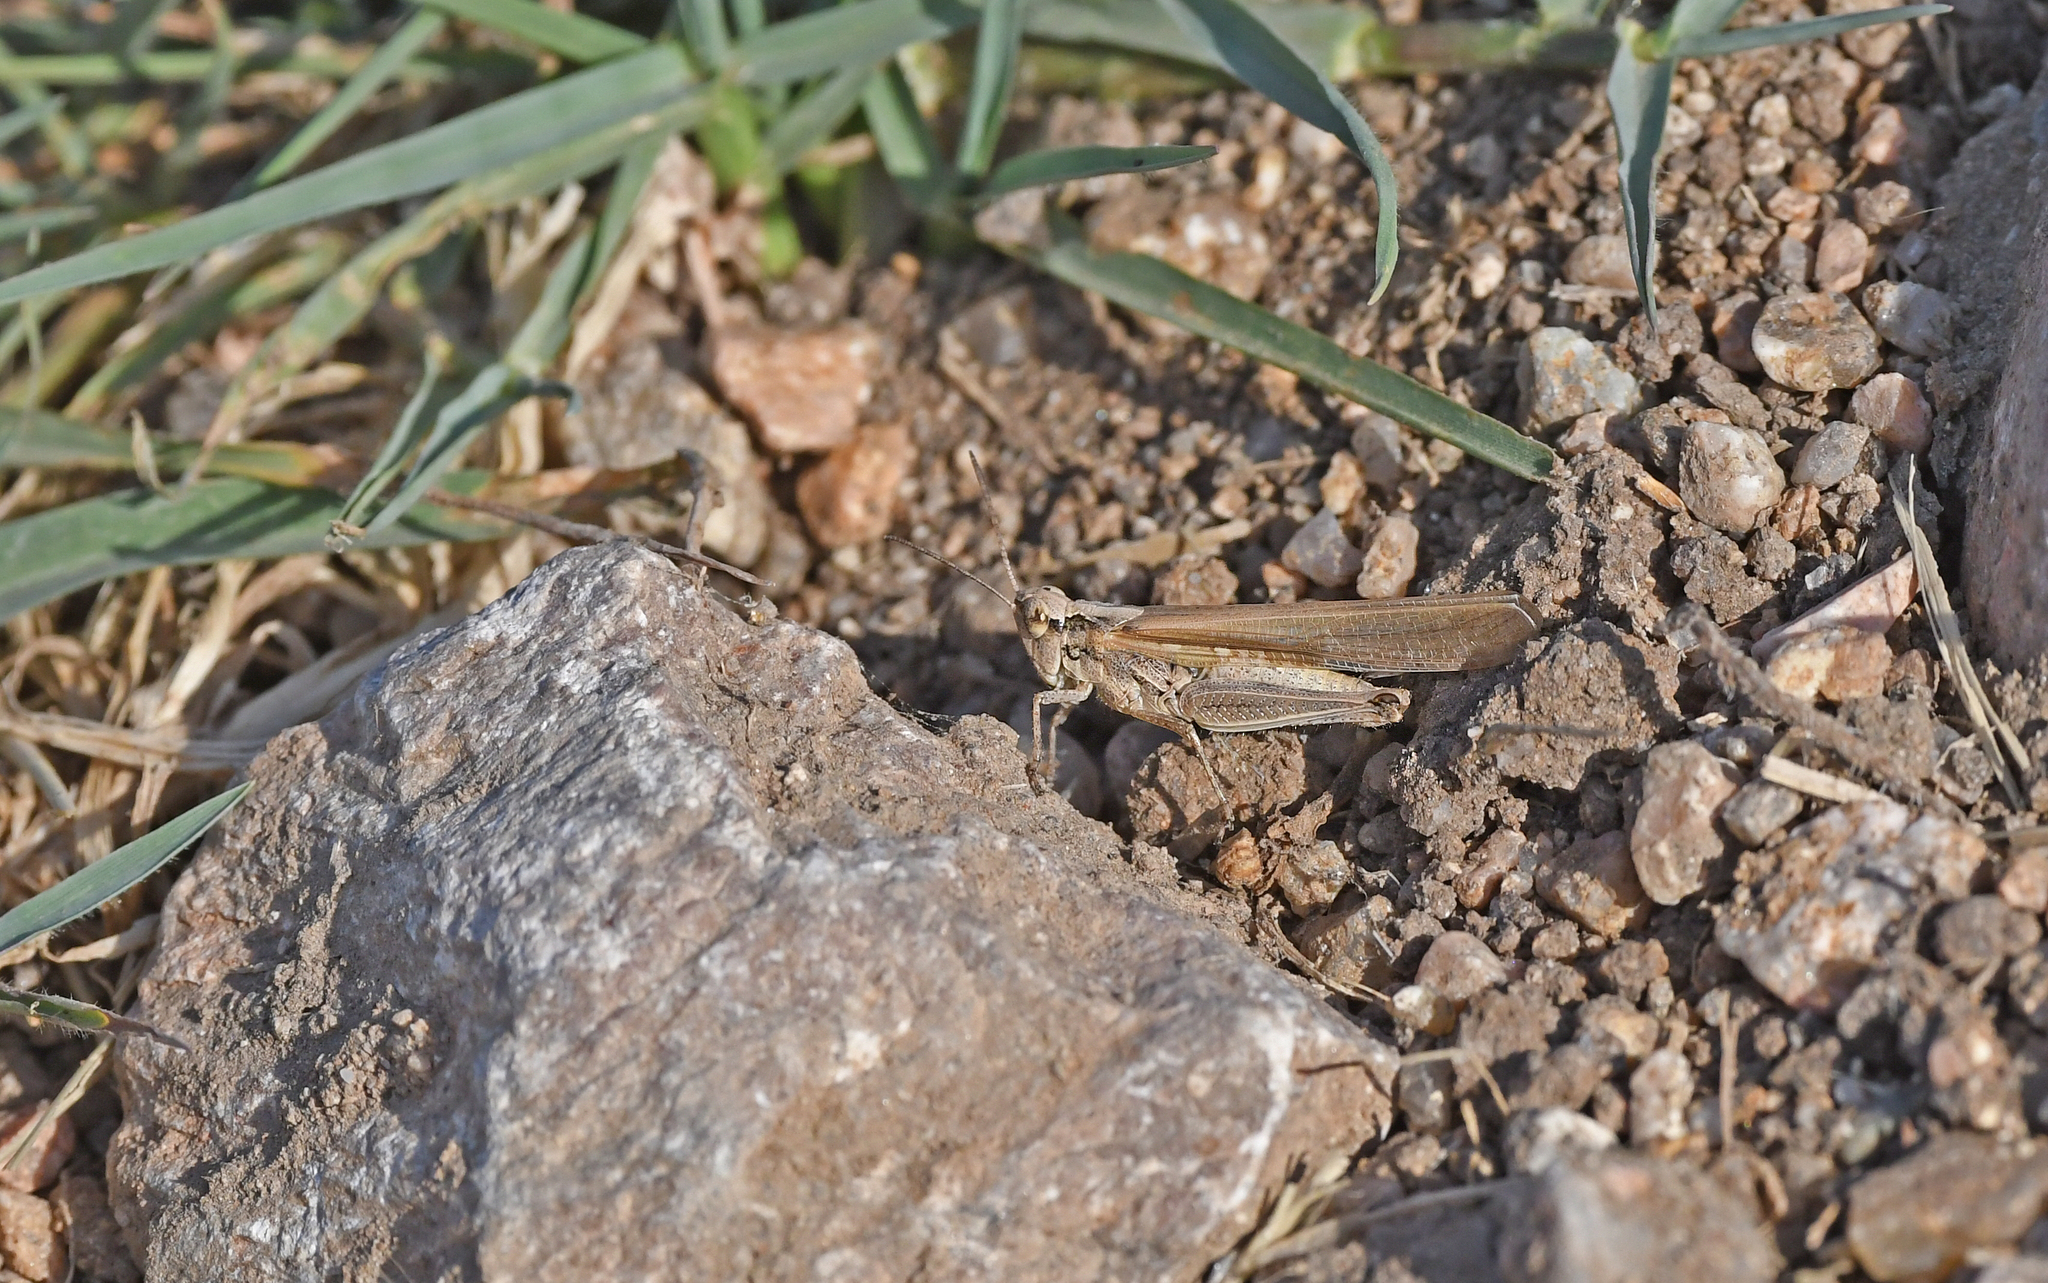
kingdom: Animalia
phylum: Arthropoda
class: Insecta
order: Orthoptera
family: Acrididae
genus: Aiolopus
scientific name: Aiolopus puissanti
